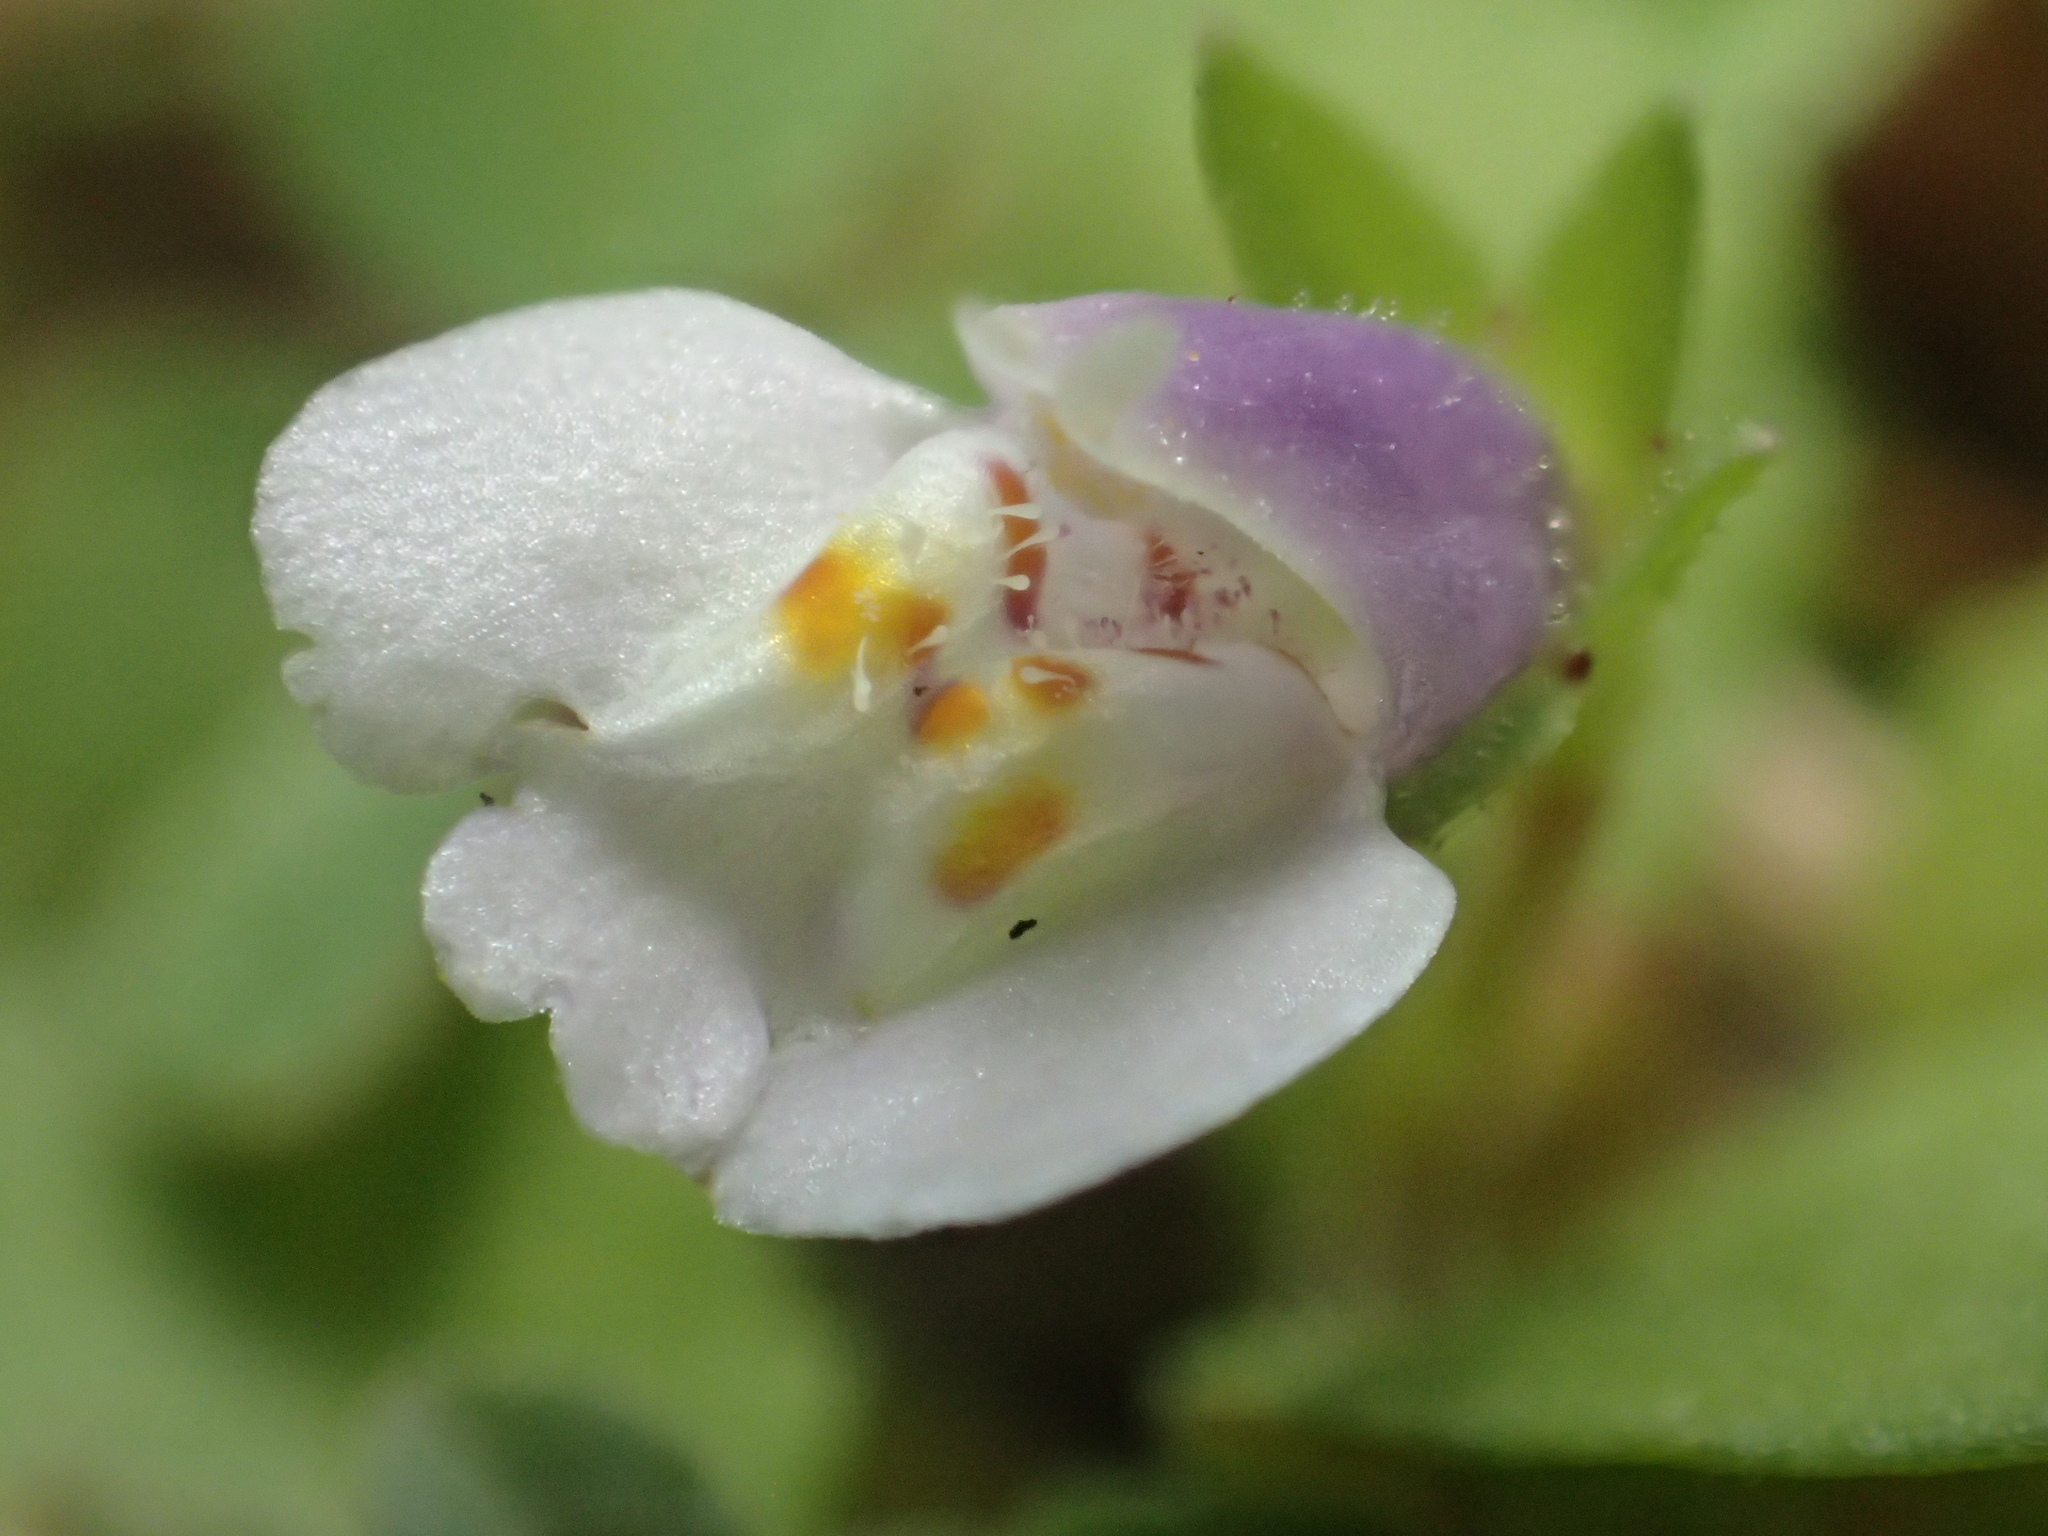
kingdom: Plantae
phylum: Tracheophyta
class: Magnoliopsida
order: Lamiales
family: Mazaceae
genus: Mazus
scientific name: Mazus pumilus
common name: Japanese mazus
